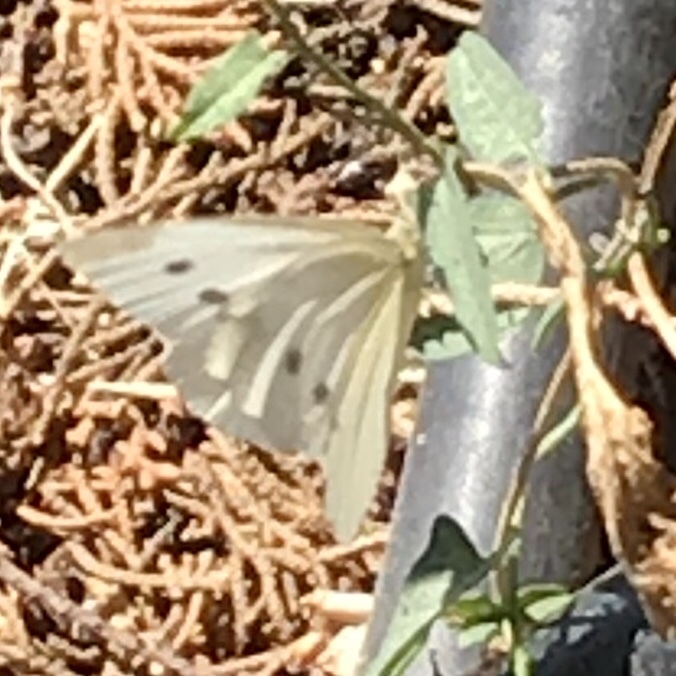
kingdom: Animalia
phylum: Arthropoda
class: Insecta
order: Lepidoptera
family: Pieridae
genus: Pieris
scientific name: Pieris rapae
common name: Small white
